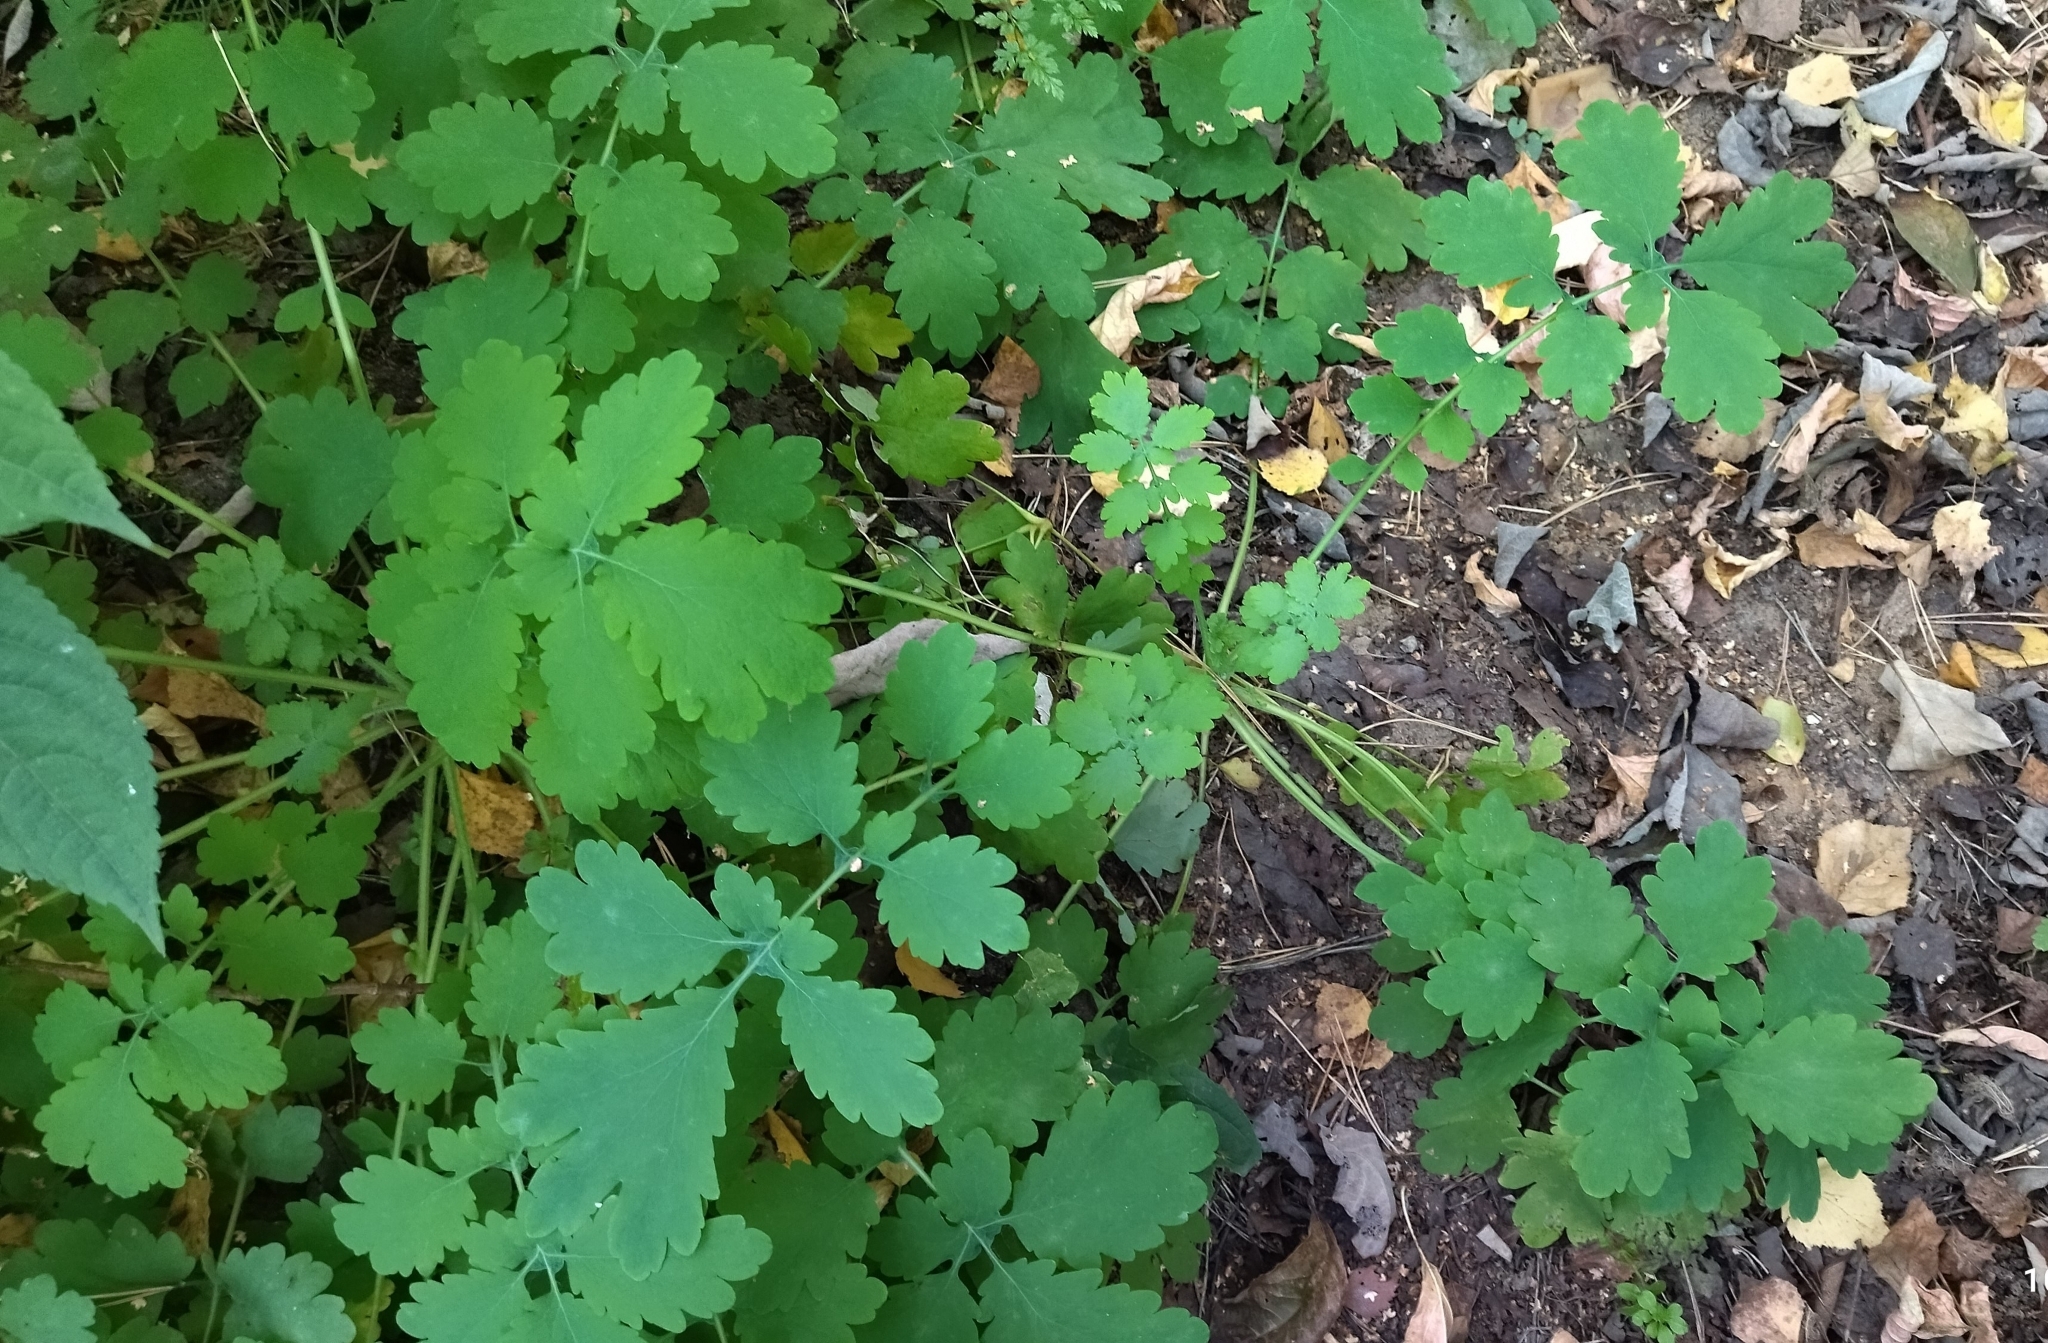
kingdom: Plantae
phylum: Tracheophyta
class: Magnoliopsida
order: Ranunculales
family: Papaveraceae
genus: Chelidonium
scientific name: Chelidonium majus
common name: Greater celandine
